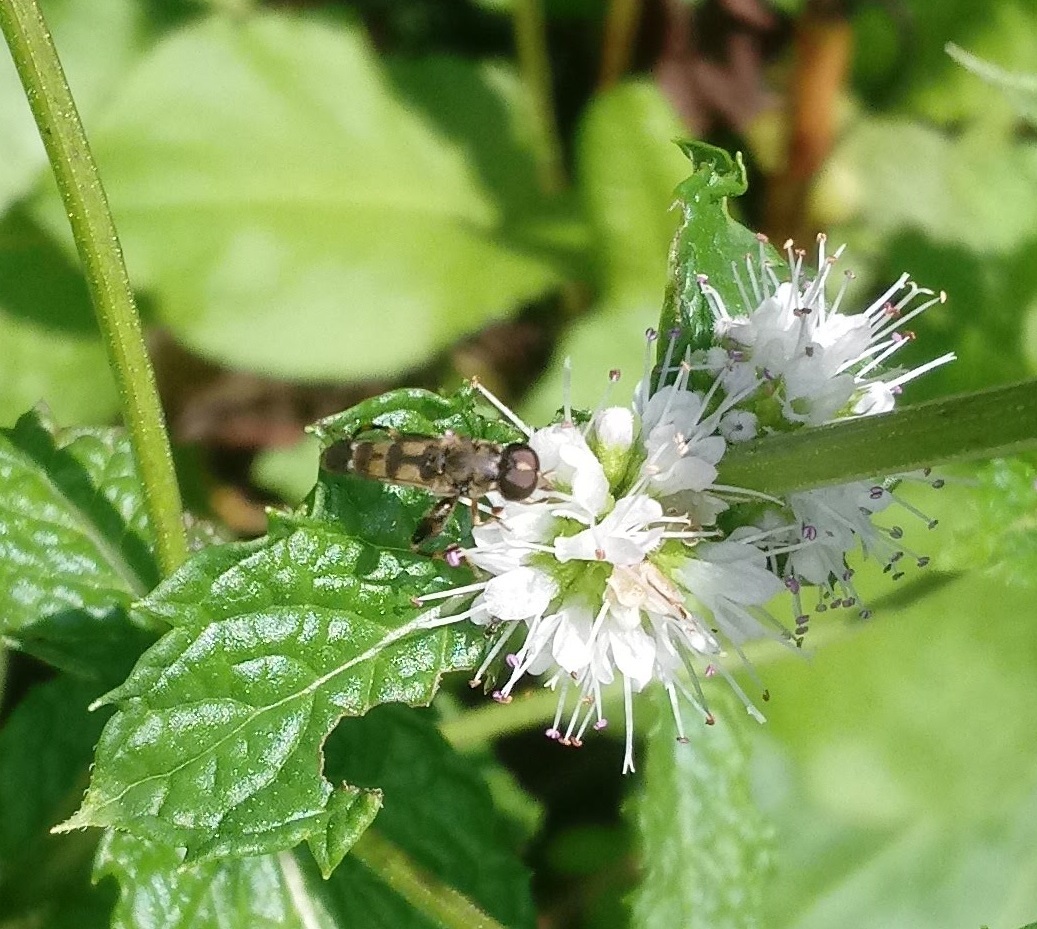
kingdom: Animalia
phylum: Arthropoda
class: Insecta
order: Diptera
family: Syrphidae
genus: Syritta
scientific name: Syritta pipiens
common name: Hover fly
